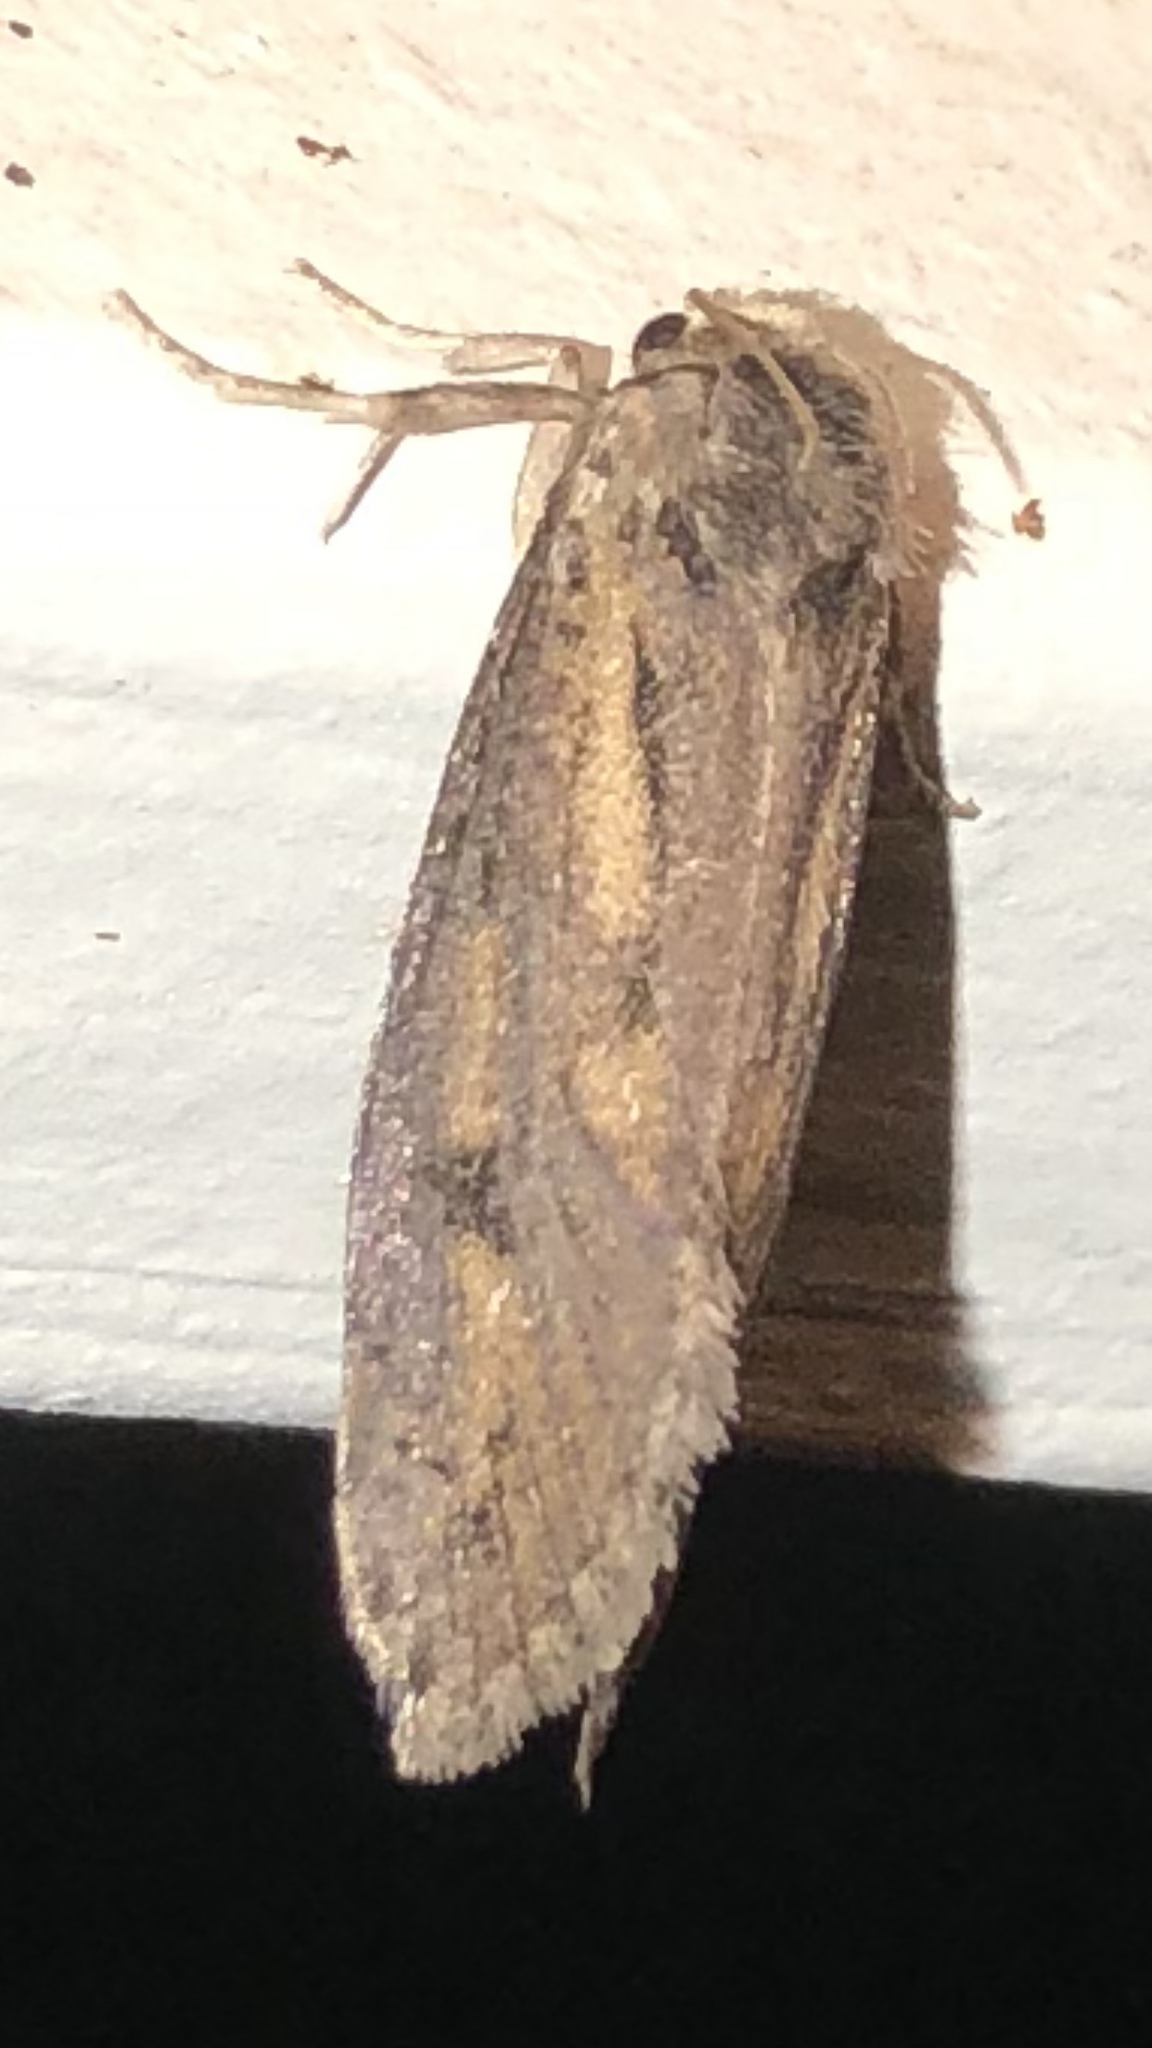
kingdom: Animalia
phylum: Arthropoda
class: Insecta
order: Lepidoptera
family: Tineidae
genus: Acrolophus
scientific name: Acrolophus popeanella
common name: Clemens' grass tubeworm moth
